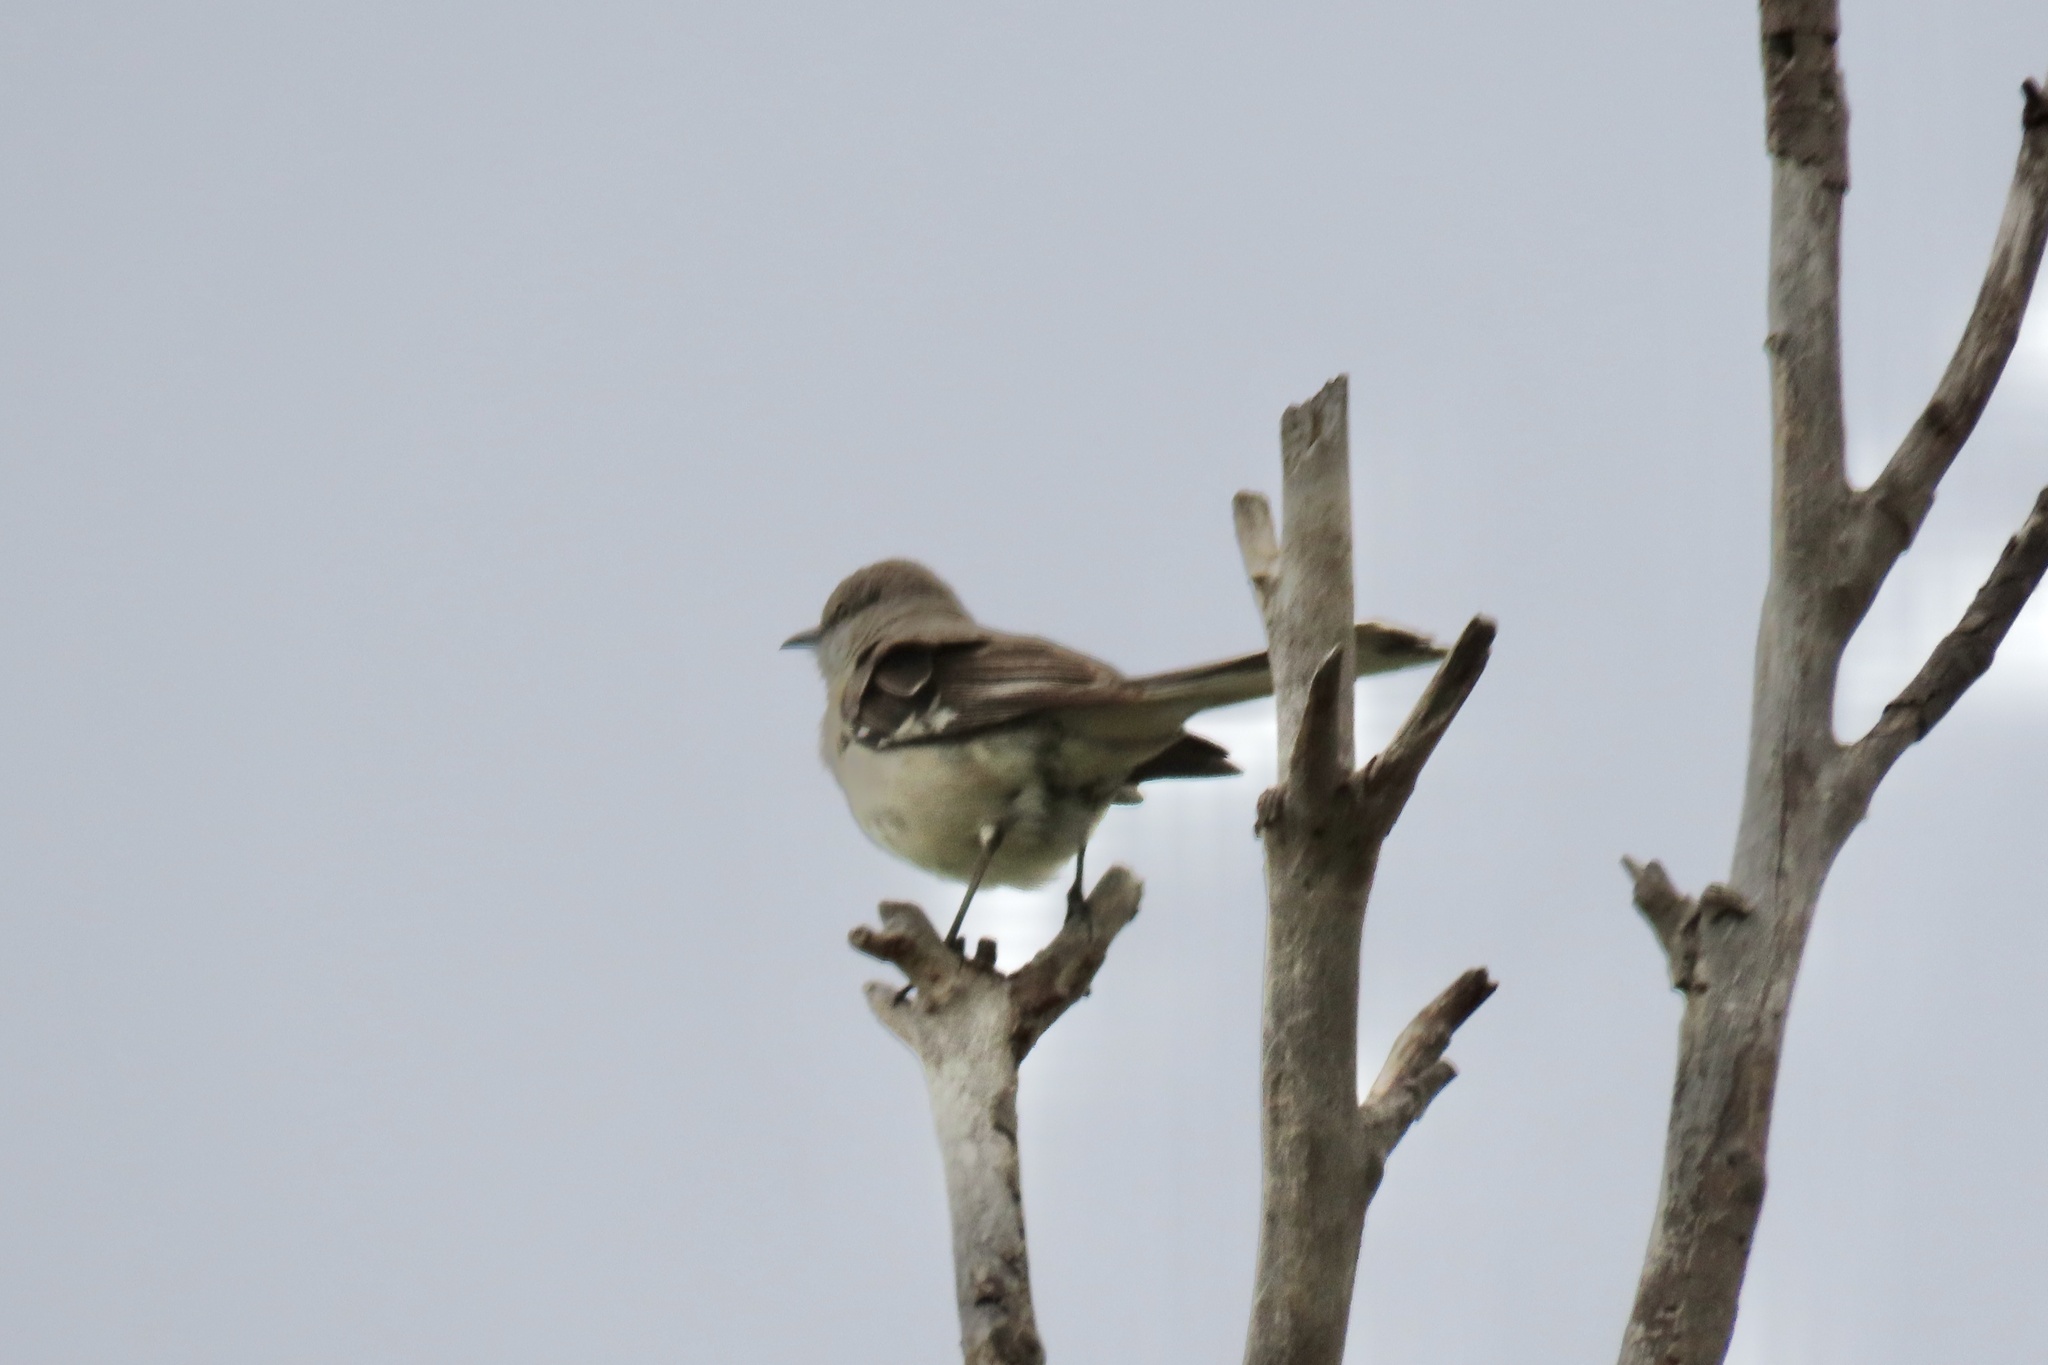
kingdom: Animalia
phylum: Chordata
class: Aves
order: Passeriformes
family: Mimidae
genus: Mimus
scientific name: Mimus polyglottos
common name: Northern mockingbird
